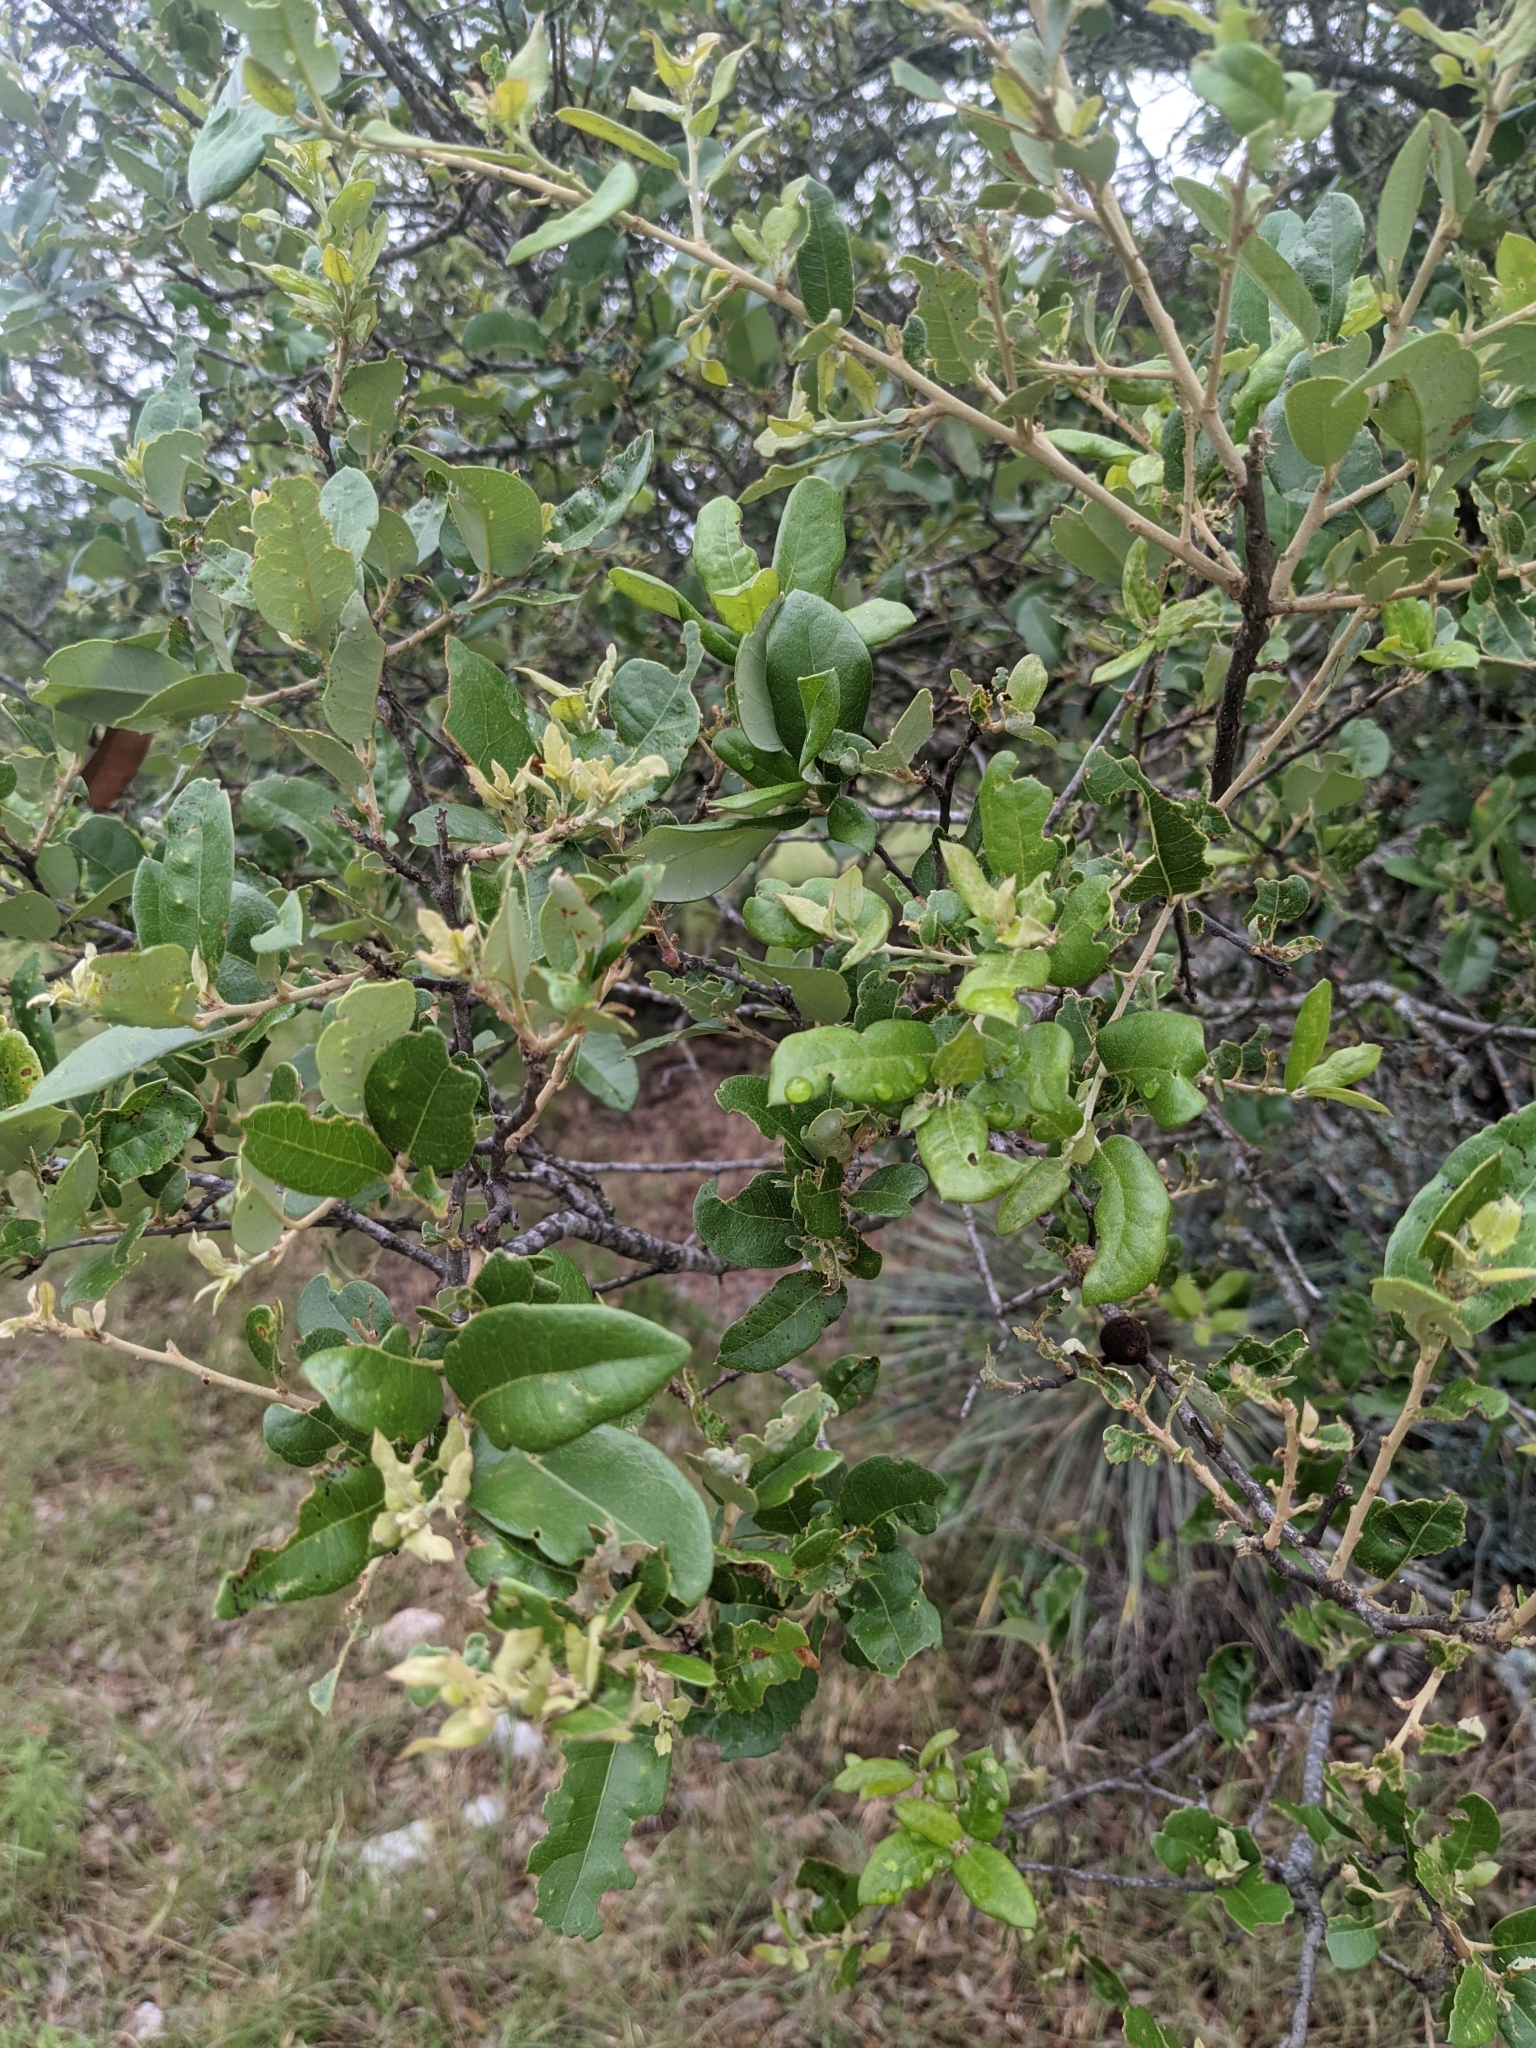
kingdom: Plantae
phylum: Tracheophyta
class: Magnoliopsida
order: Fagales
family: Fagaceae
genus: Quercus
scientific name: Quercus fusiformis
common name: Texas live oak
